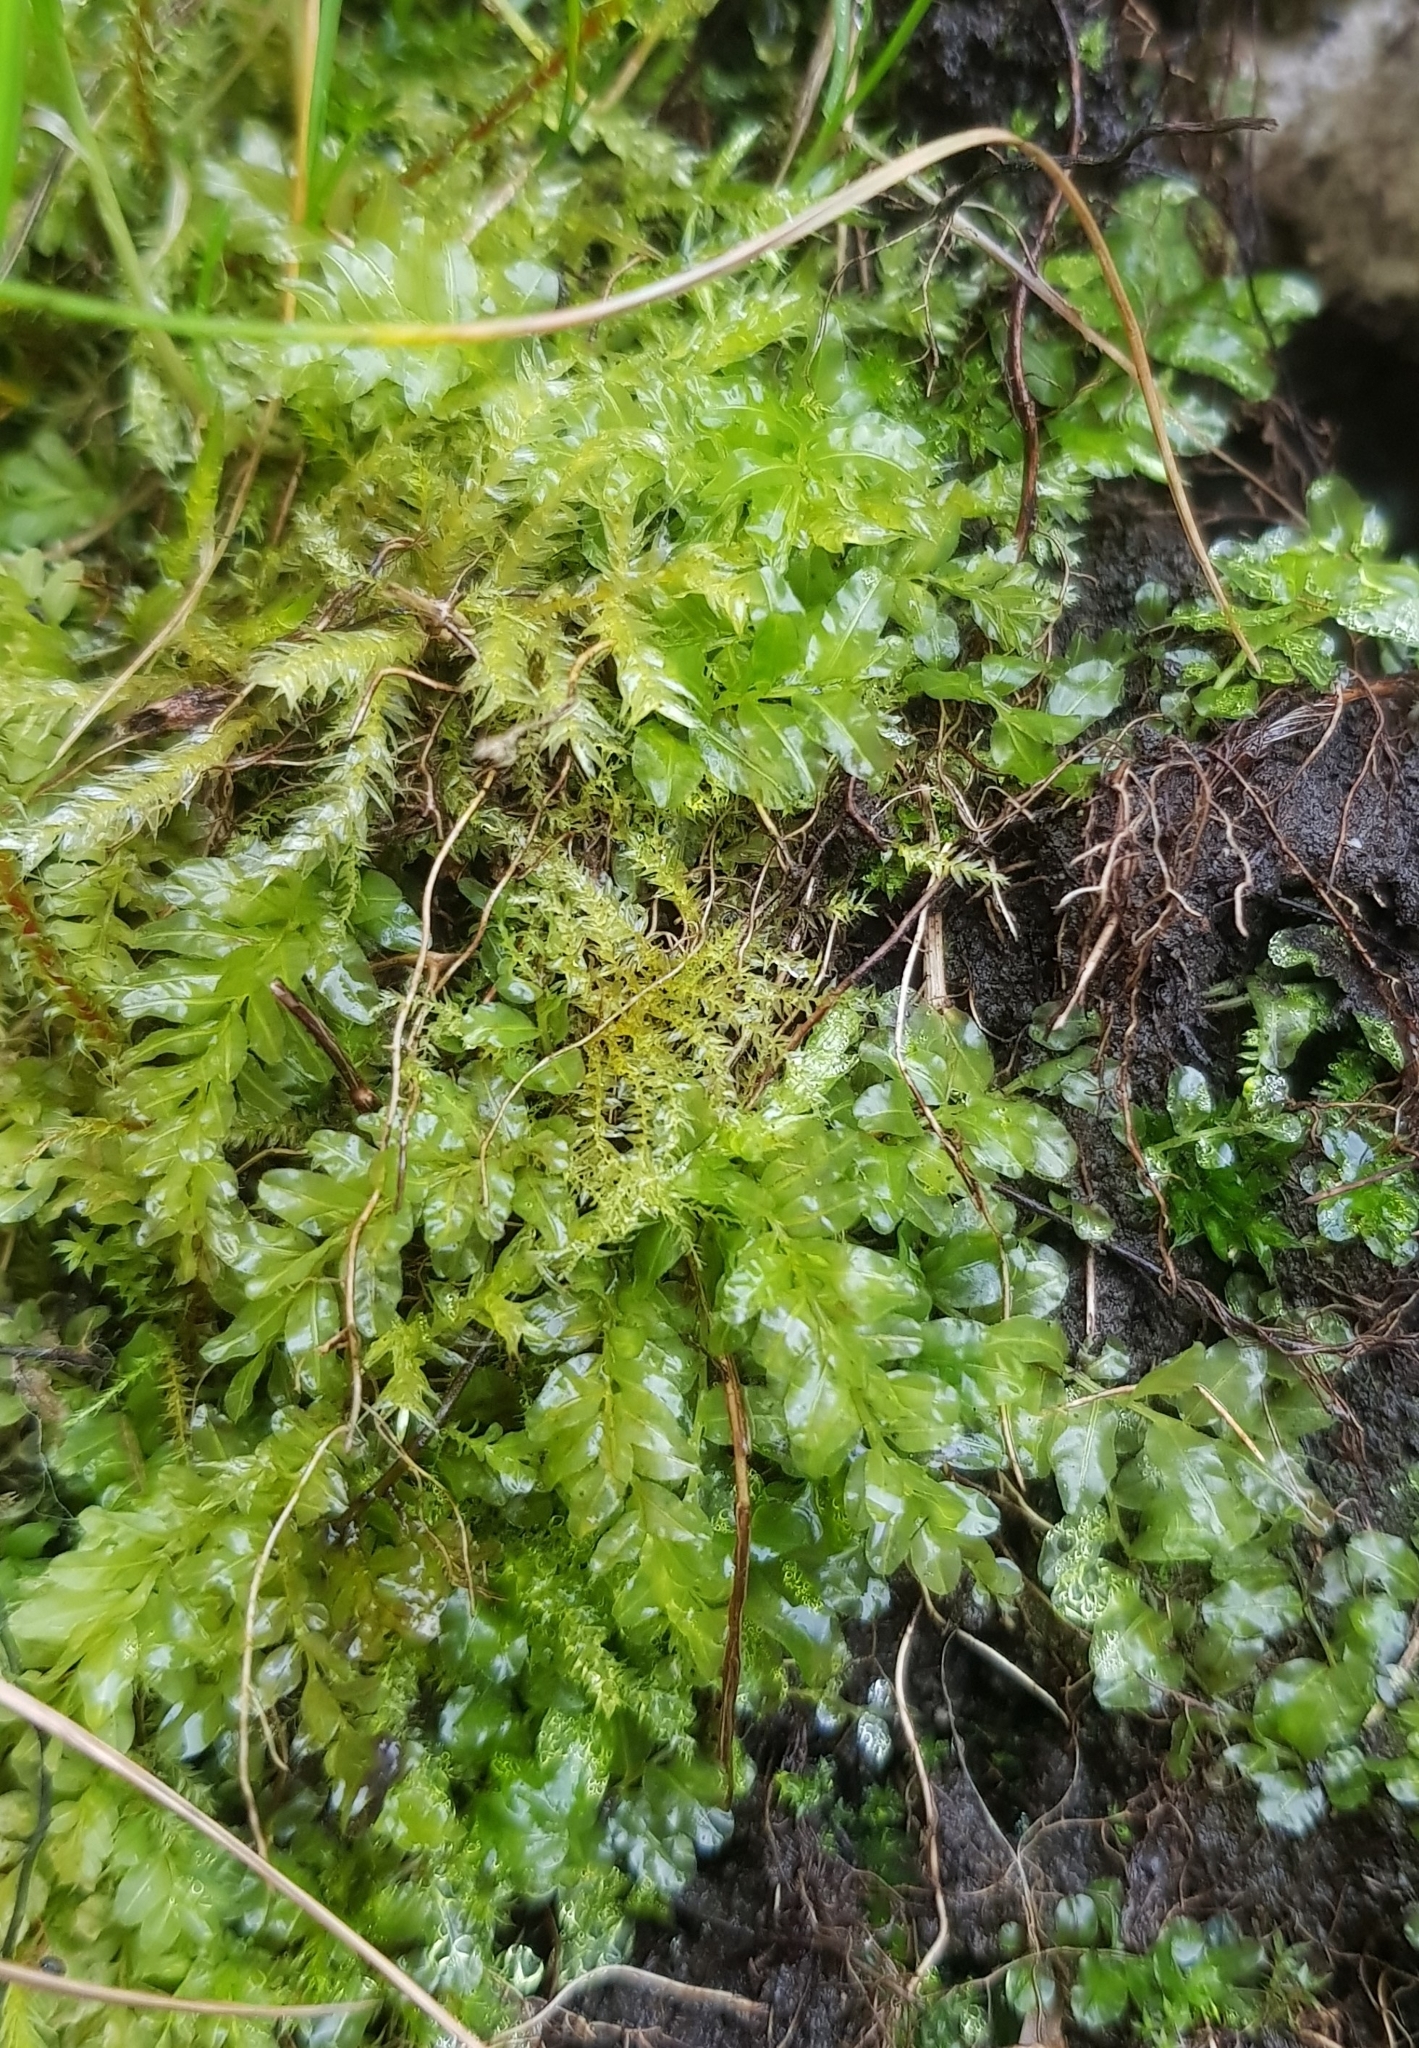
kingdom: Plantae
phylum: Bryophyta
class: Bryopsida
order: Bryales
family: Mniaceae
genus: Plagiomnium
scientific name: Plagiomnium undulatum
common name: Hart's-tongue thyme-moss
